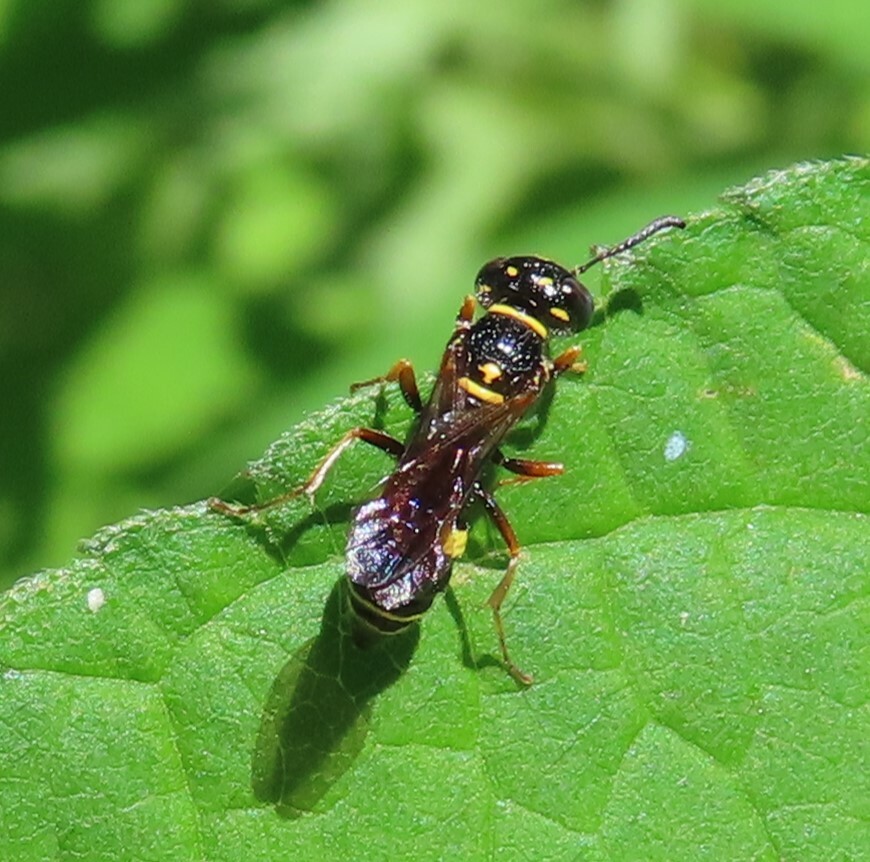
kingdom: Animalia
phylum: Arthropoda
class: Insecta
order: Hymenoptera
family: Crabronidae
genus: Philanthus
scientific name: Philanthus gibbosus
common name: Humped beewolf
